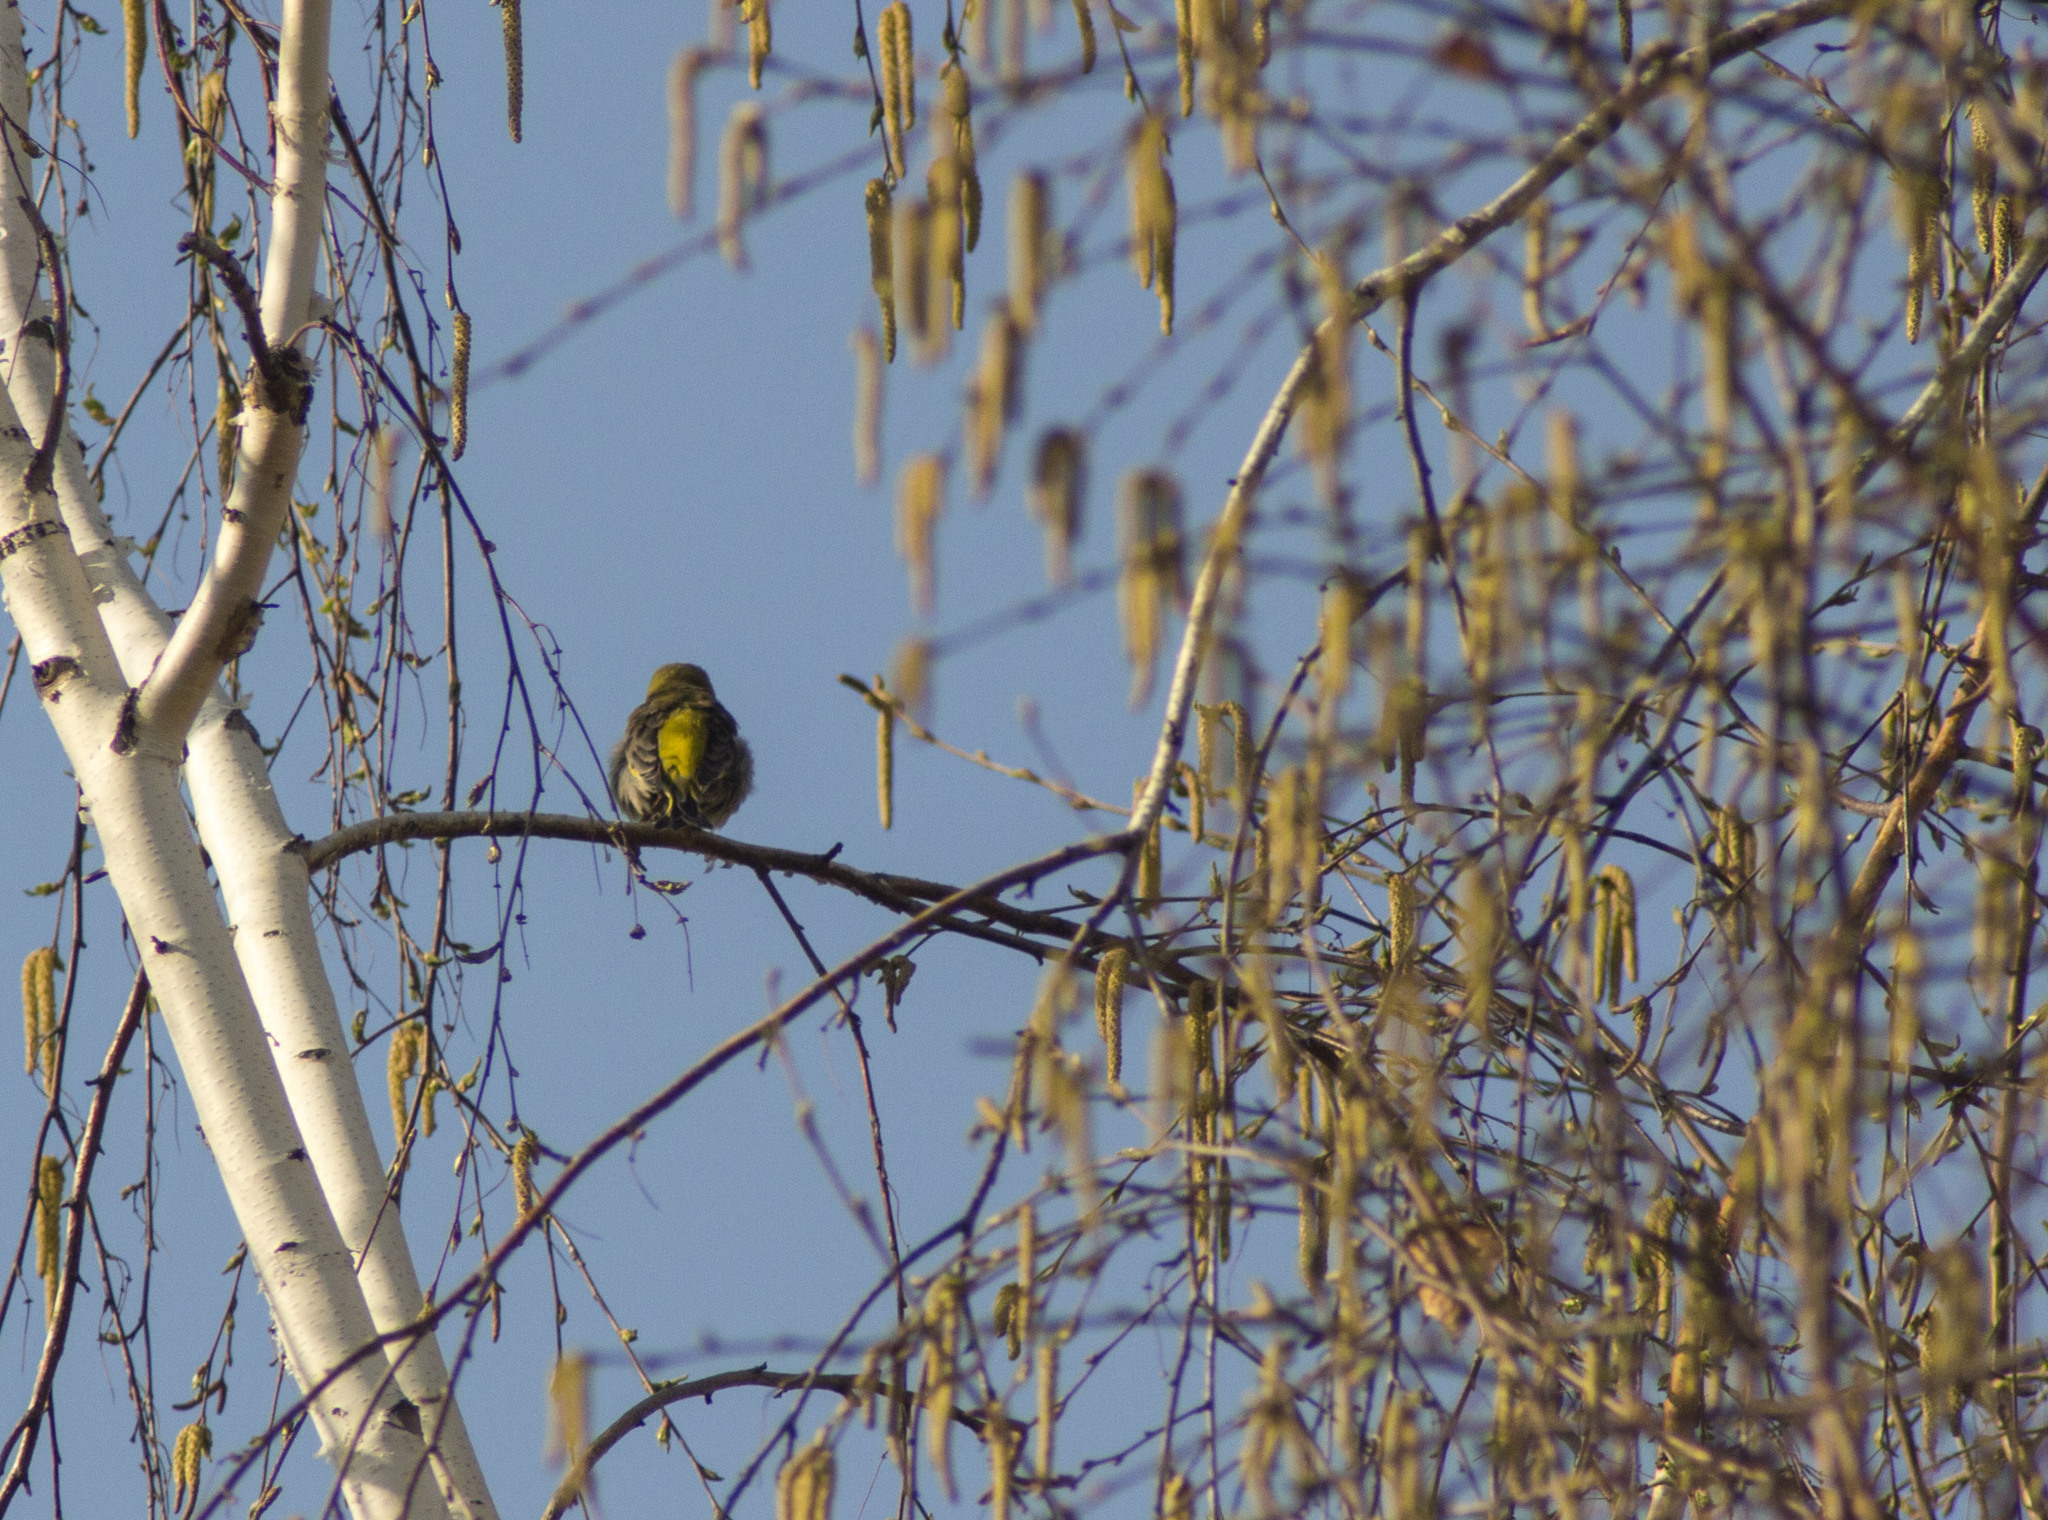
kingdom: Plantae
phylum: Tracheophyta
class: Liliopsida
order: Poales
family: Poaceae
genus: Chloris
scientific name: Chloris chloris
